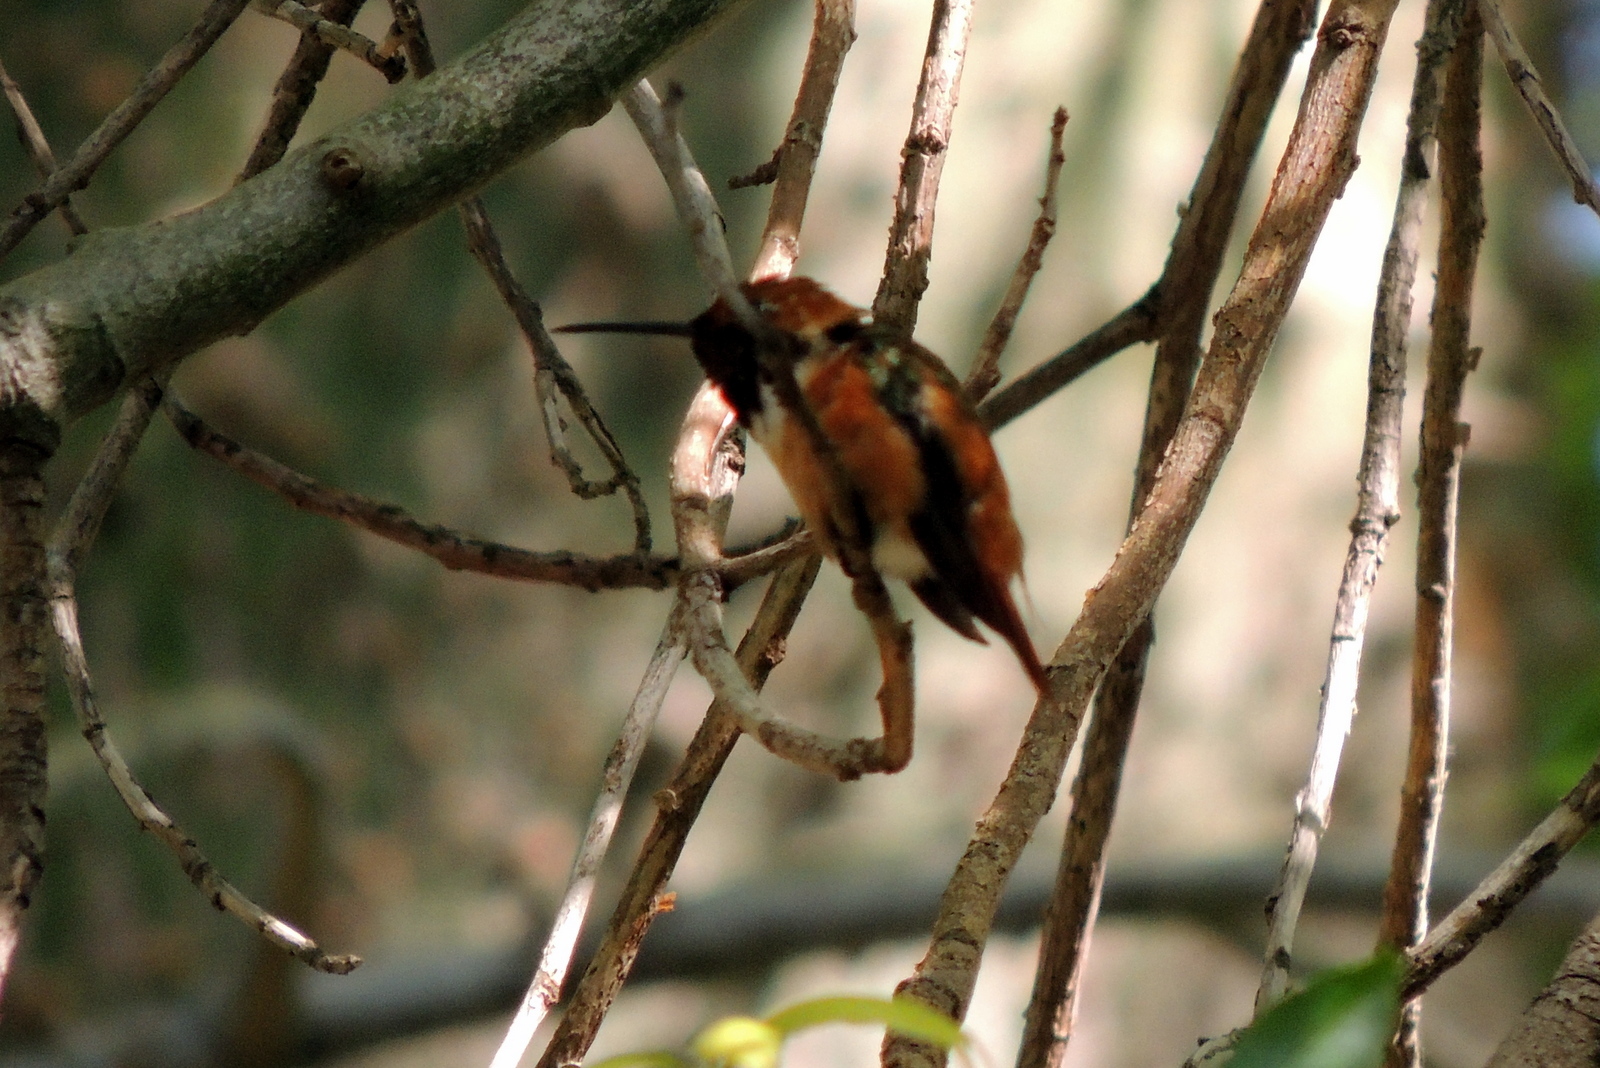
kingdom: Animalia
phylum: Chordata
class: Aves
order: Apodiformes
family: Trochilidae
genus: Selasphorus
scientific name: Selasphorus sasin
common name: Allen's hummingbird
